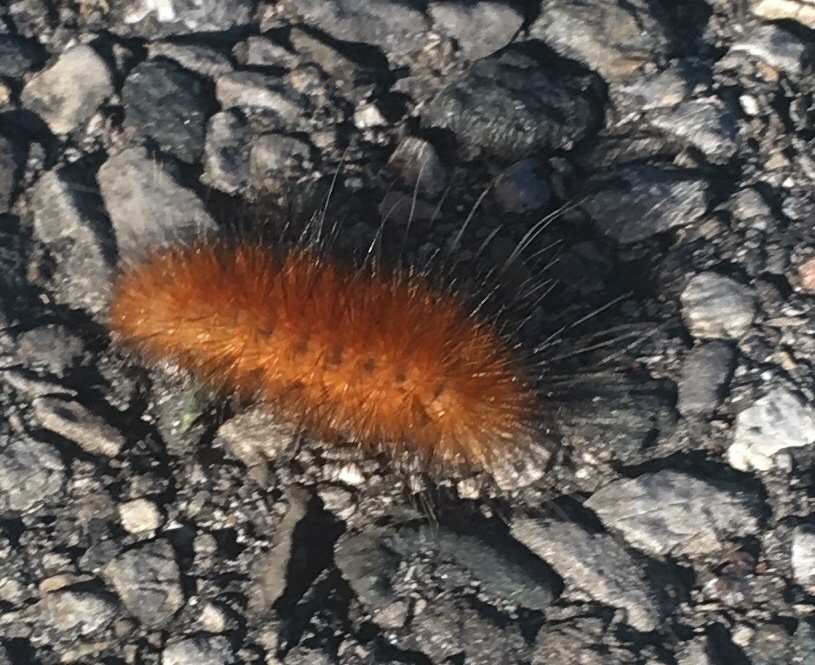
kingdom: Animalia
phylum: Arthropoda
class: Insecta
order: Lepidoptera
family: Erebidae
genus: Spilosoma
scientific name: Spilosoma virginica
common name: Virginia tiger moth
